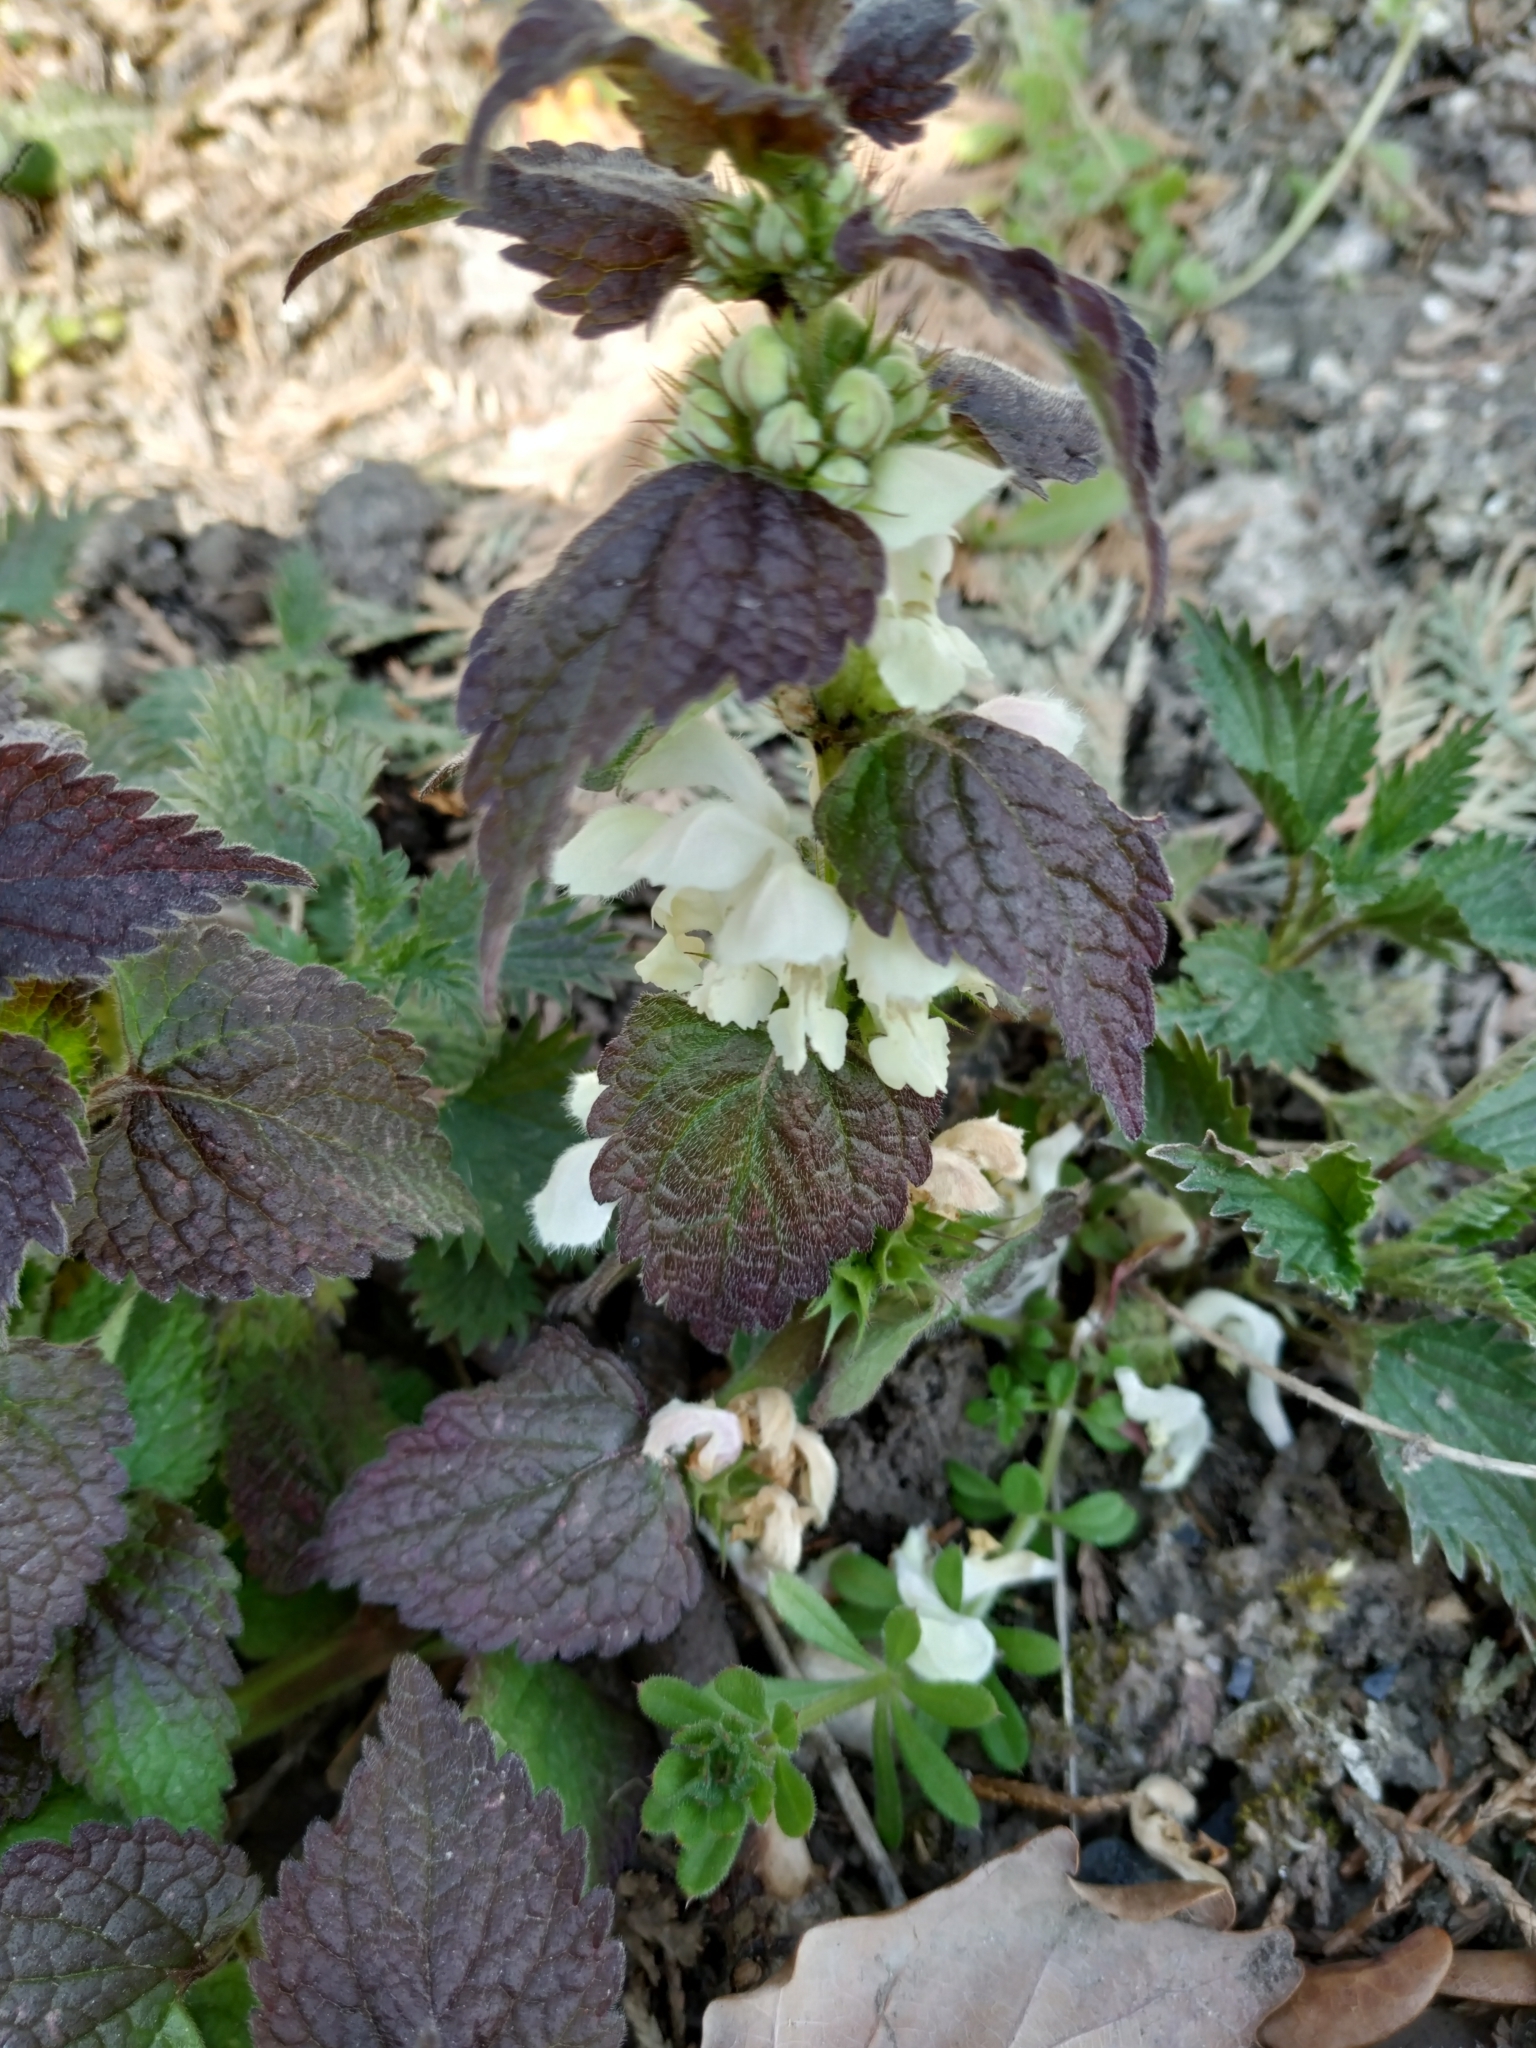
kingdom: Plantae
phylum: Tracheophyta
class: Magnoliopsida
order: Lamiales
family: Lamiaceae
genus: Lamium
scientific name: Lamium album
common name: White dead-nettle
